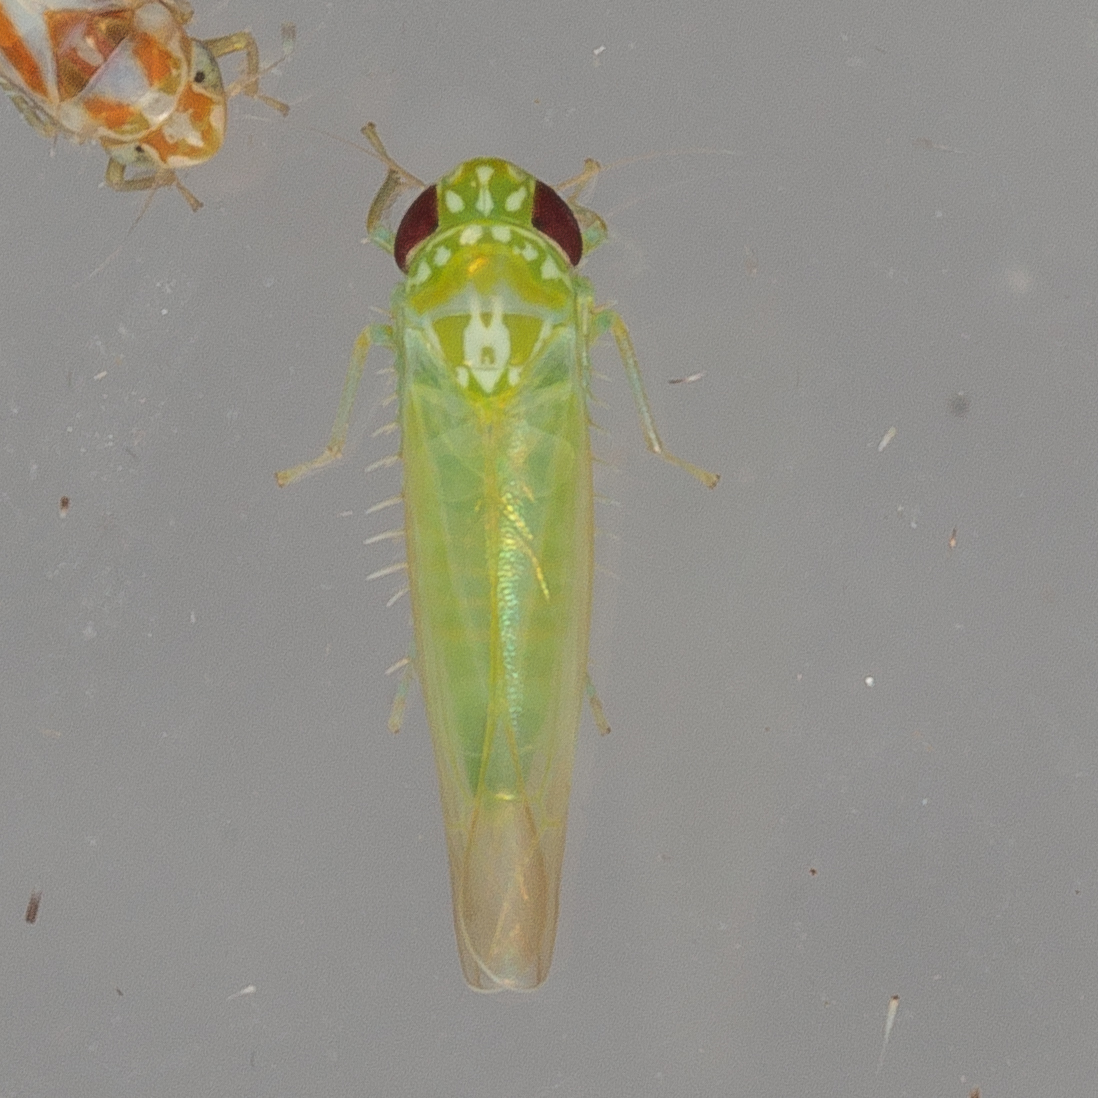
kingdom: Animalia
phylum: Arthropoda
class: Insecta
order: Hemiptera
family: Cicadellidae
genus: Empoasca
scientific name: Empoasca fabae
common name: Potato leafhopper
